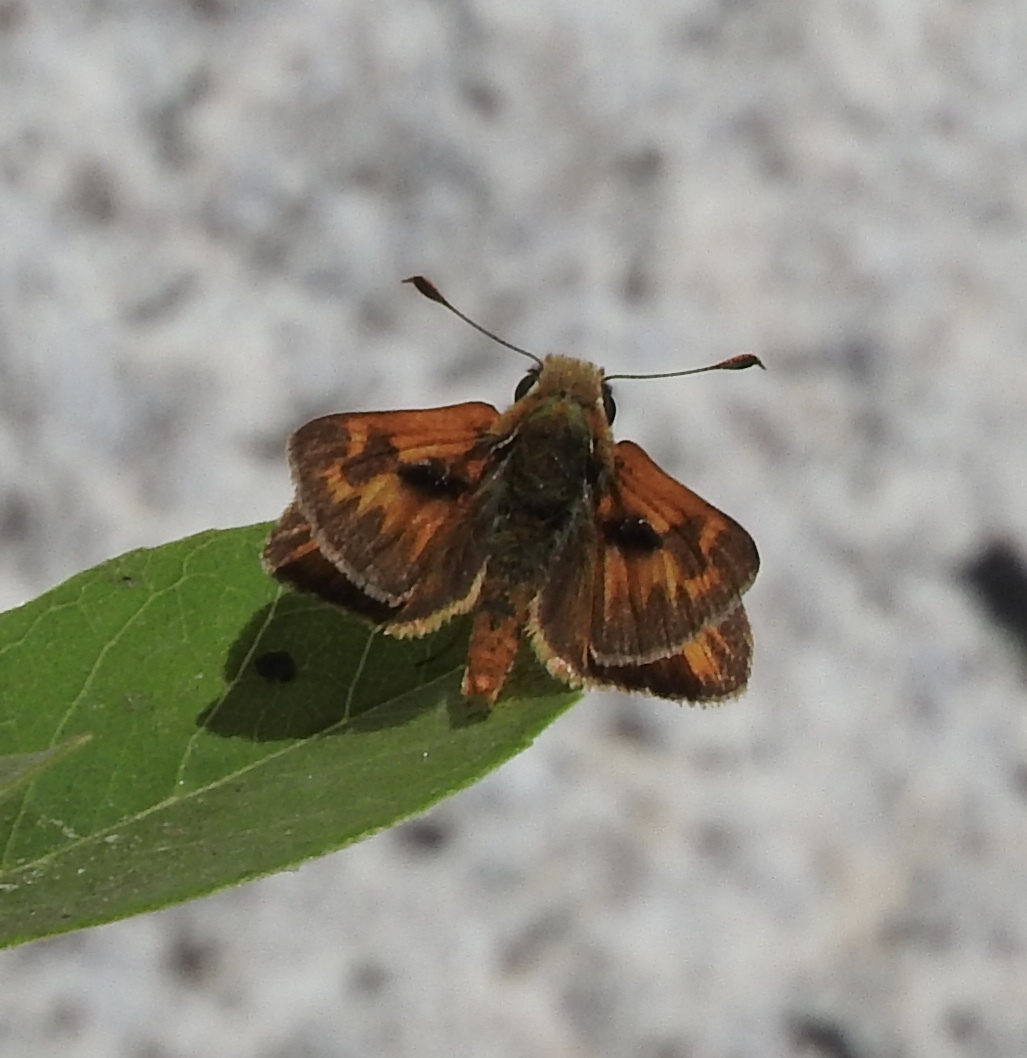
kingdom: Animalia
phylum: Arthropoda
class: Insecta
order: Lepidoptera
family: Hesperiidae
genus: Ochlodes
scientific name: Ochlodes sylvanoides
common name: Woodland skipper
